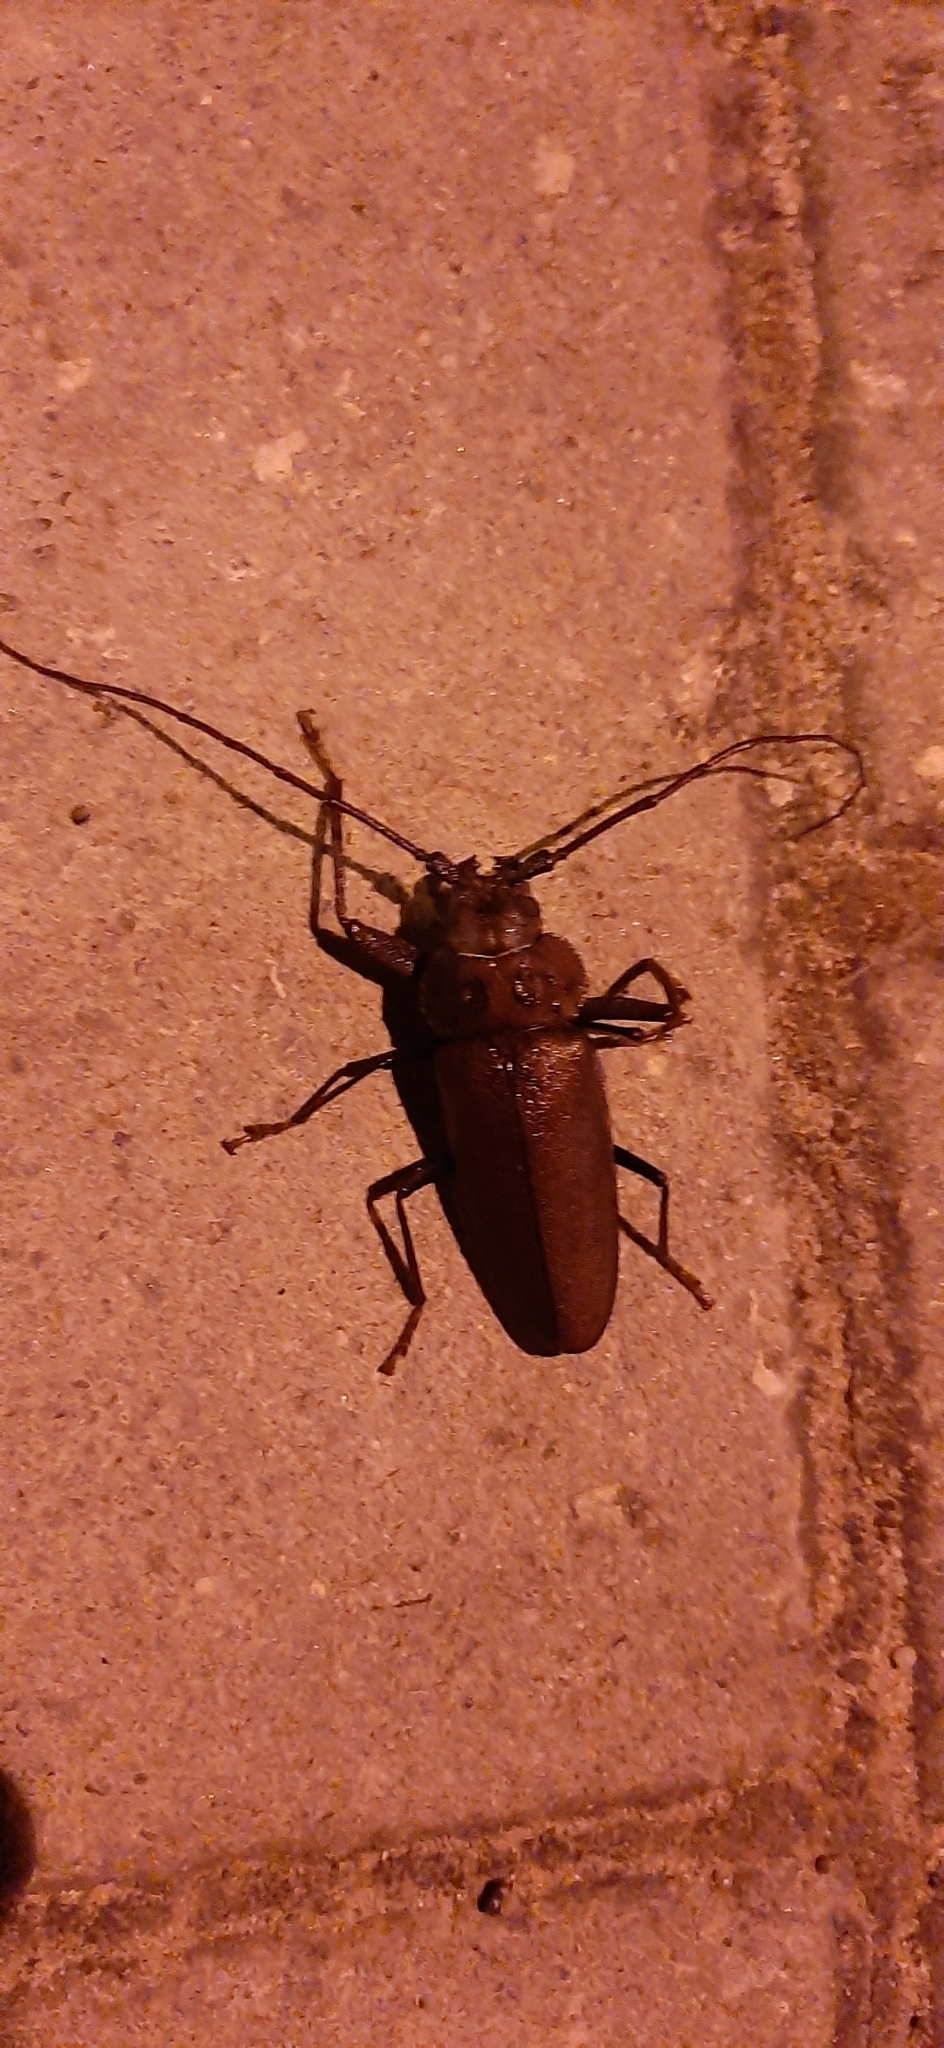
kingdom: Animalia
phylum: Arthropoda
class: Insecta
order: Coleoptera
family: Cerambycidae
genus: Ergates
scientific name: Ergates faber
